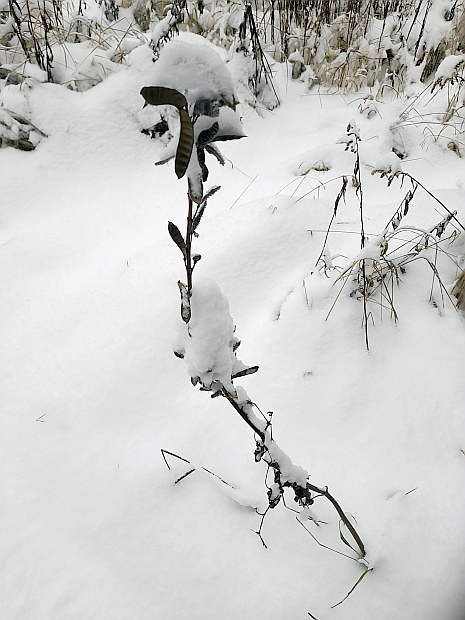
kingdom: Plantae
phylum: Tracheophyta
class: Magnoliopsida
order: Fabales
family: Fabaceae
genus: Lupinus
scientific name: Lupinus polyphyllus
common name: Garden lupin
